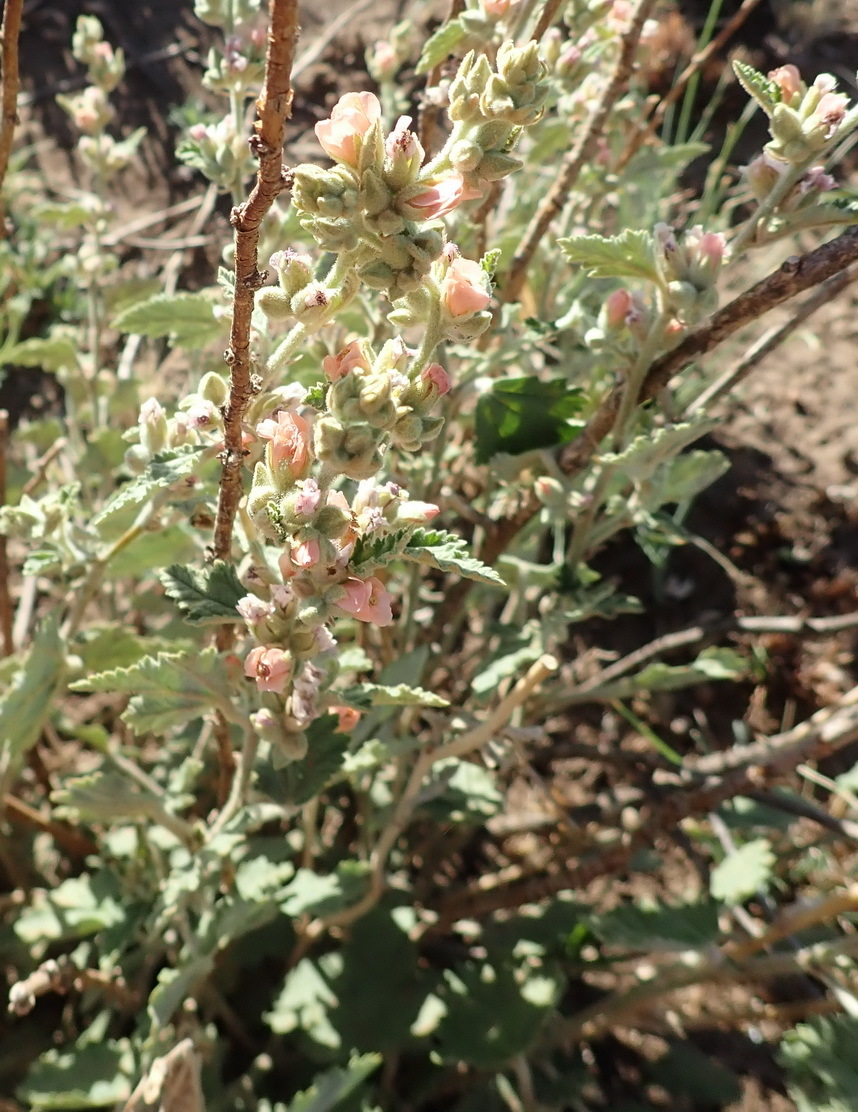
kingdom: Plantae
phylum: Tracheophyta
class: Magnoliopsida
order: Malvales
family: Malvaceae
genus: Sphaeralcea
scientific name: Sphaeralcea bonariensis
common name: Latin globemallow
